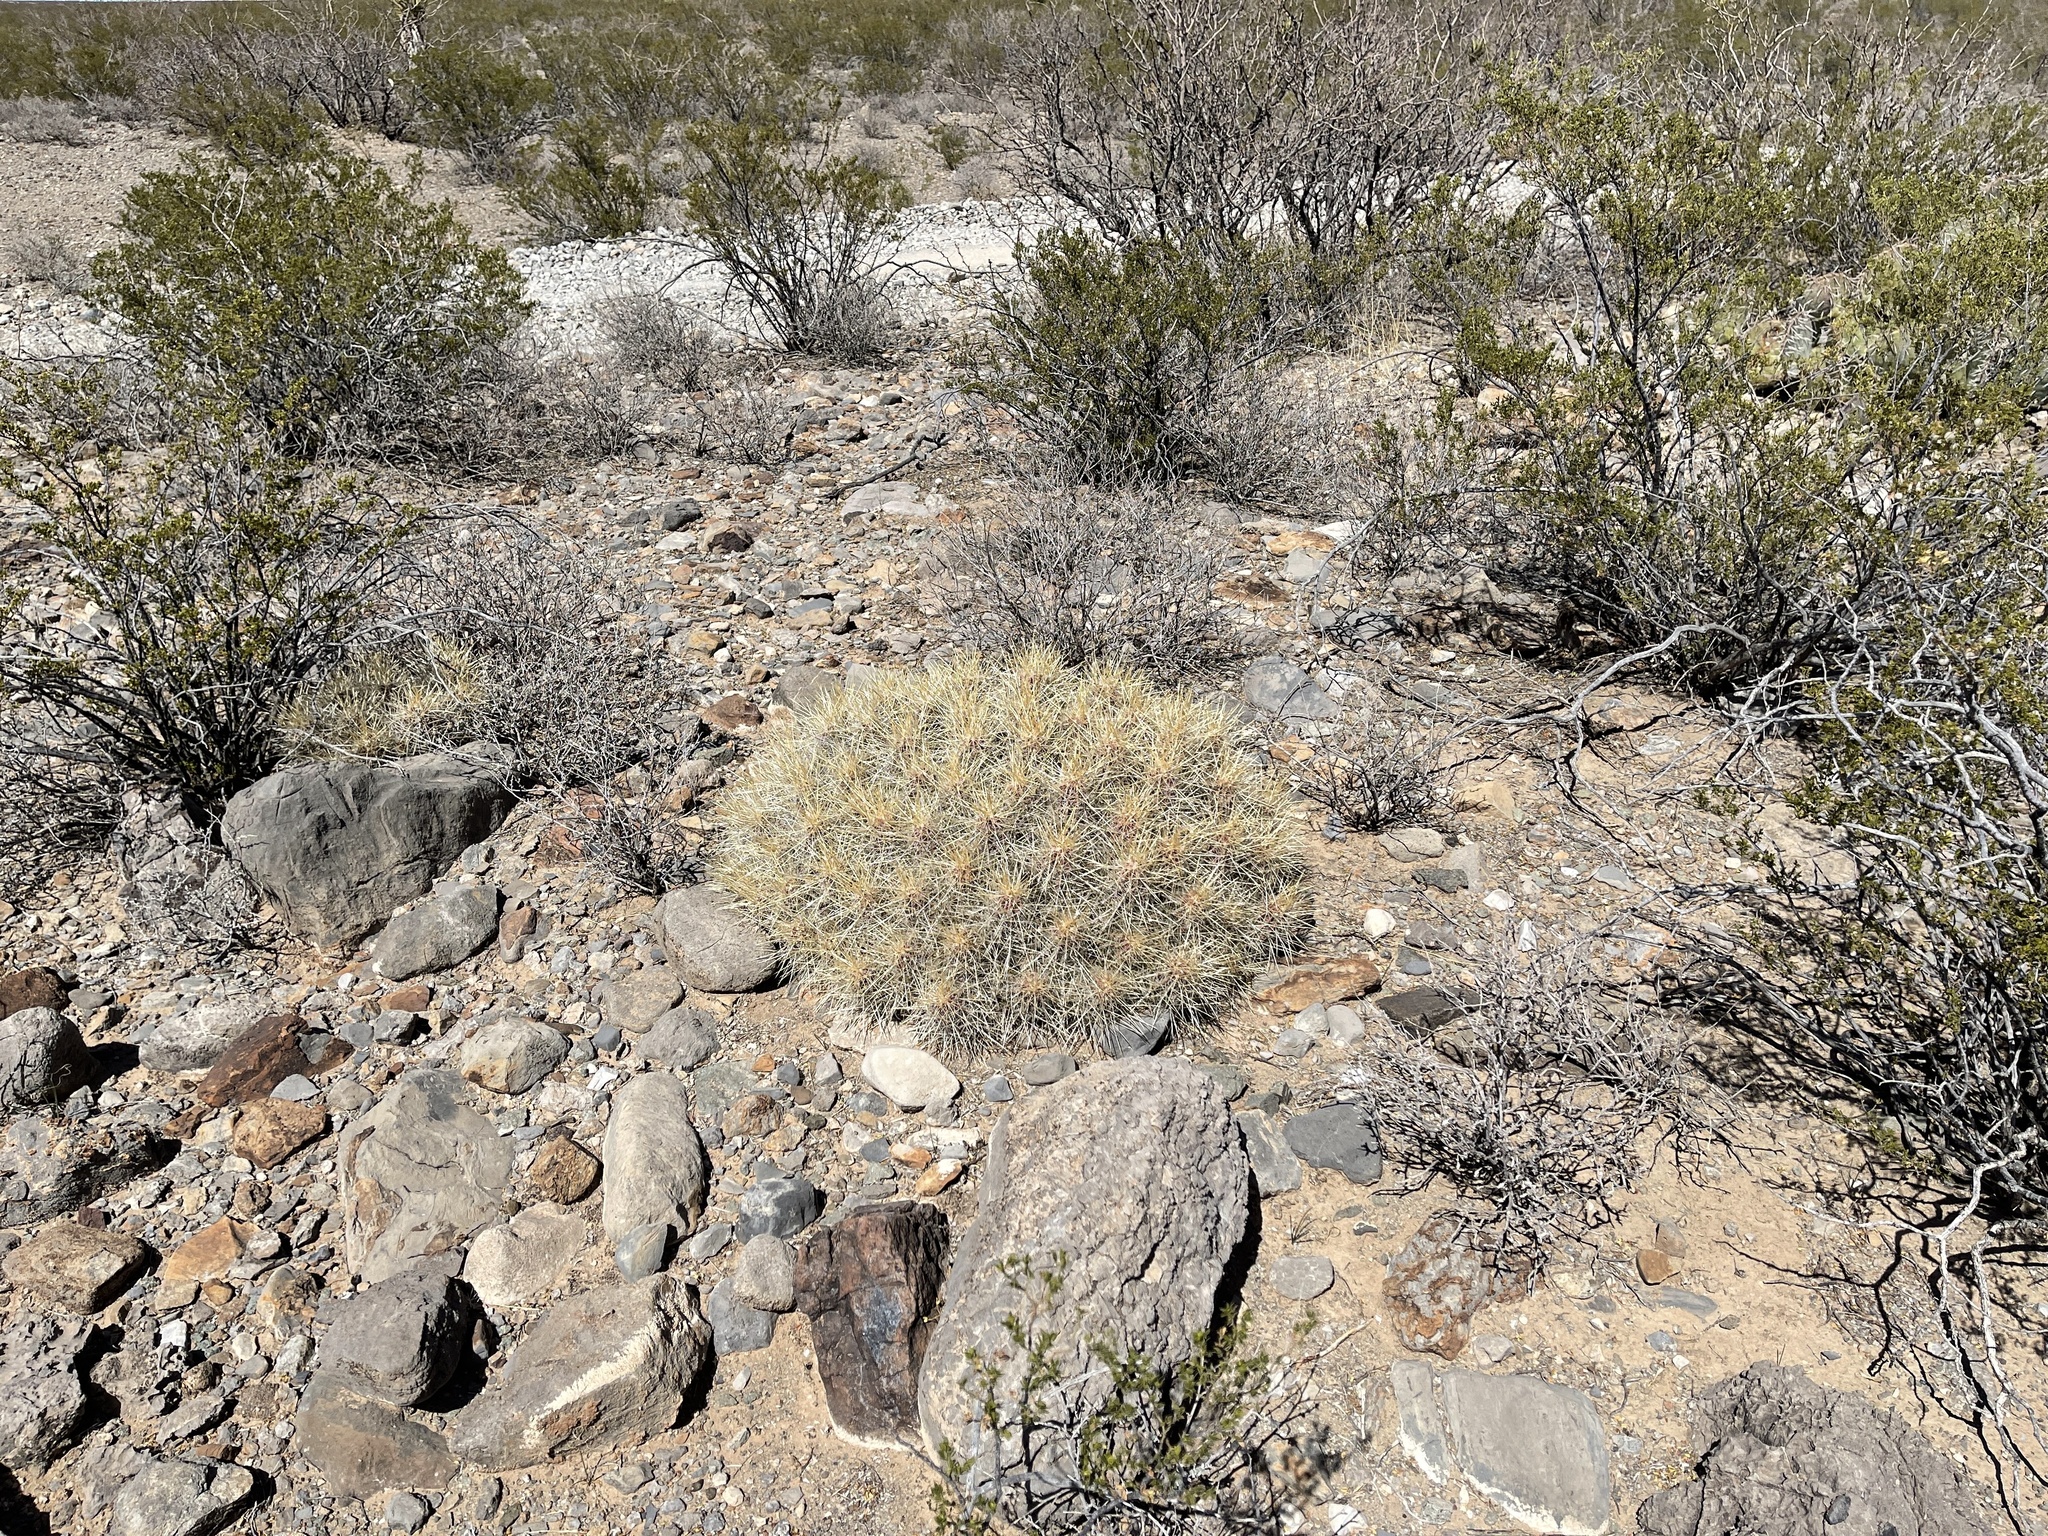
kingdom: Plantae
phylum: Tracheophyta
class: Magnoliopsida
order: Caryophyllales
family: Cactaceae
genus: Echinocereus
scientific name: Echinocereus stramineus
